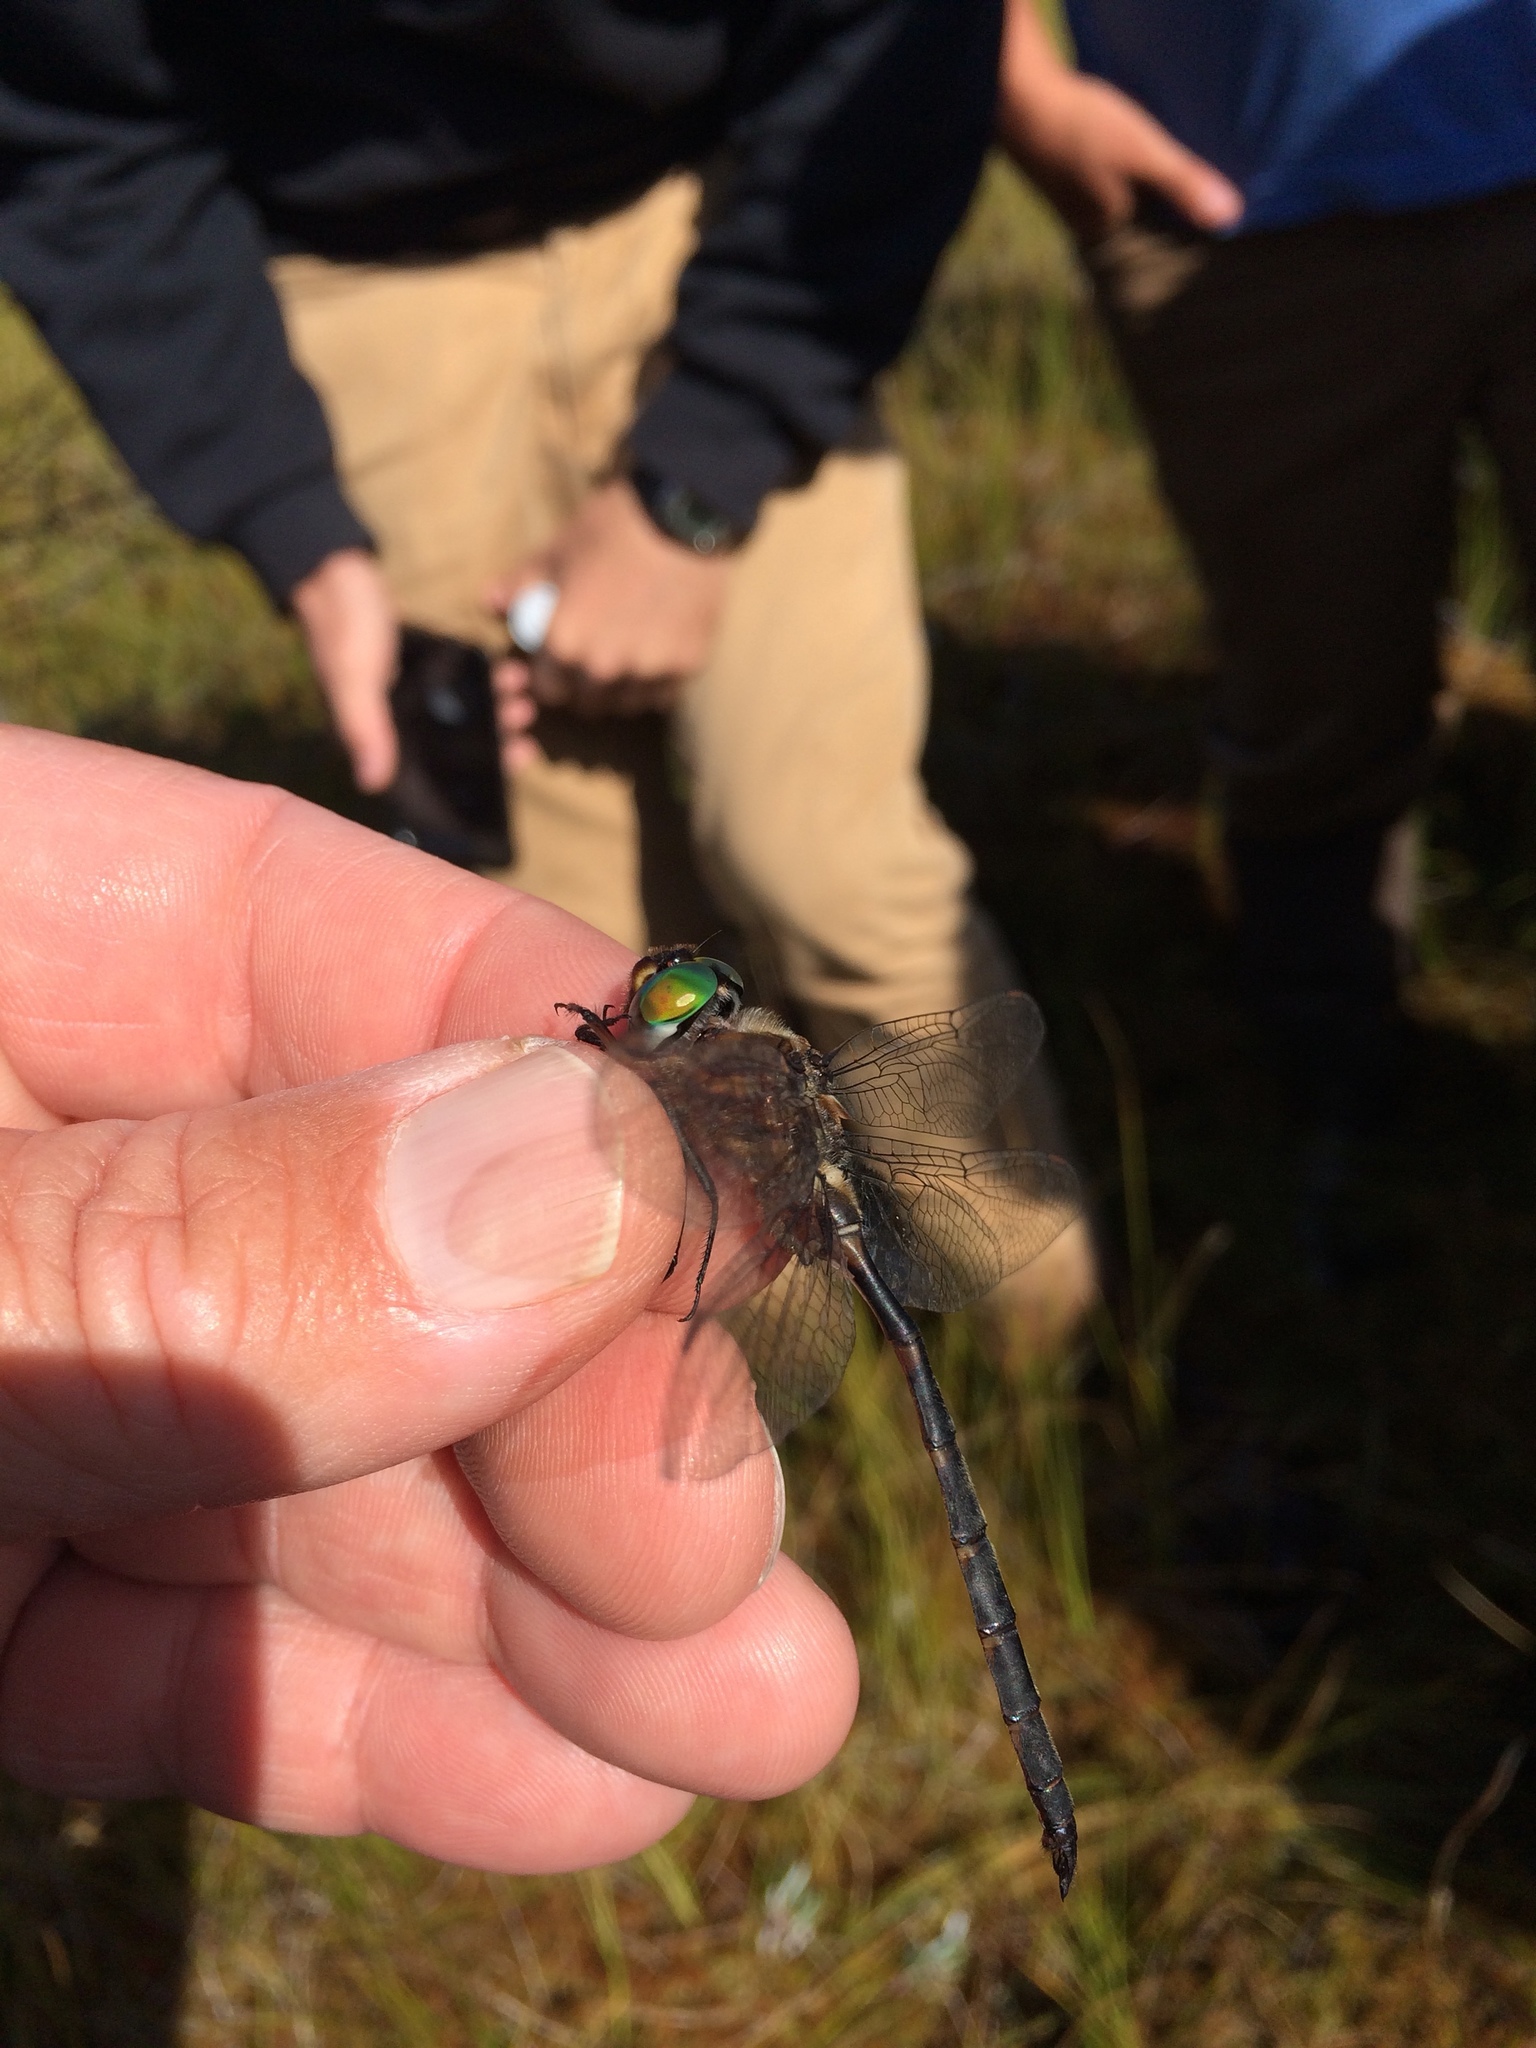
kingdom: Animalia
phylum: Arthropoda
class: Insecta
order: Odonata
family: Corduliidae
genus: Somatochlora
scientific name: Somatochlora incurvata
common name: Incurvate emerald
